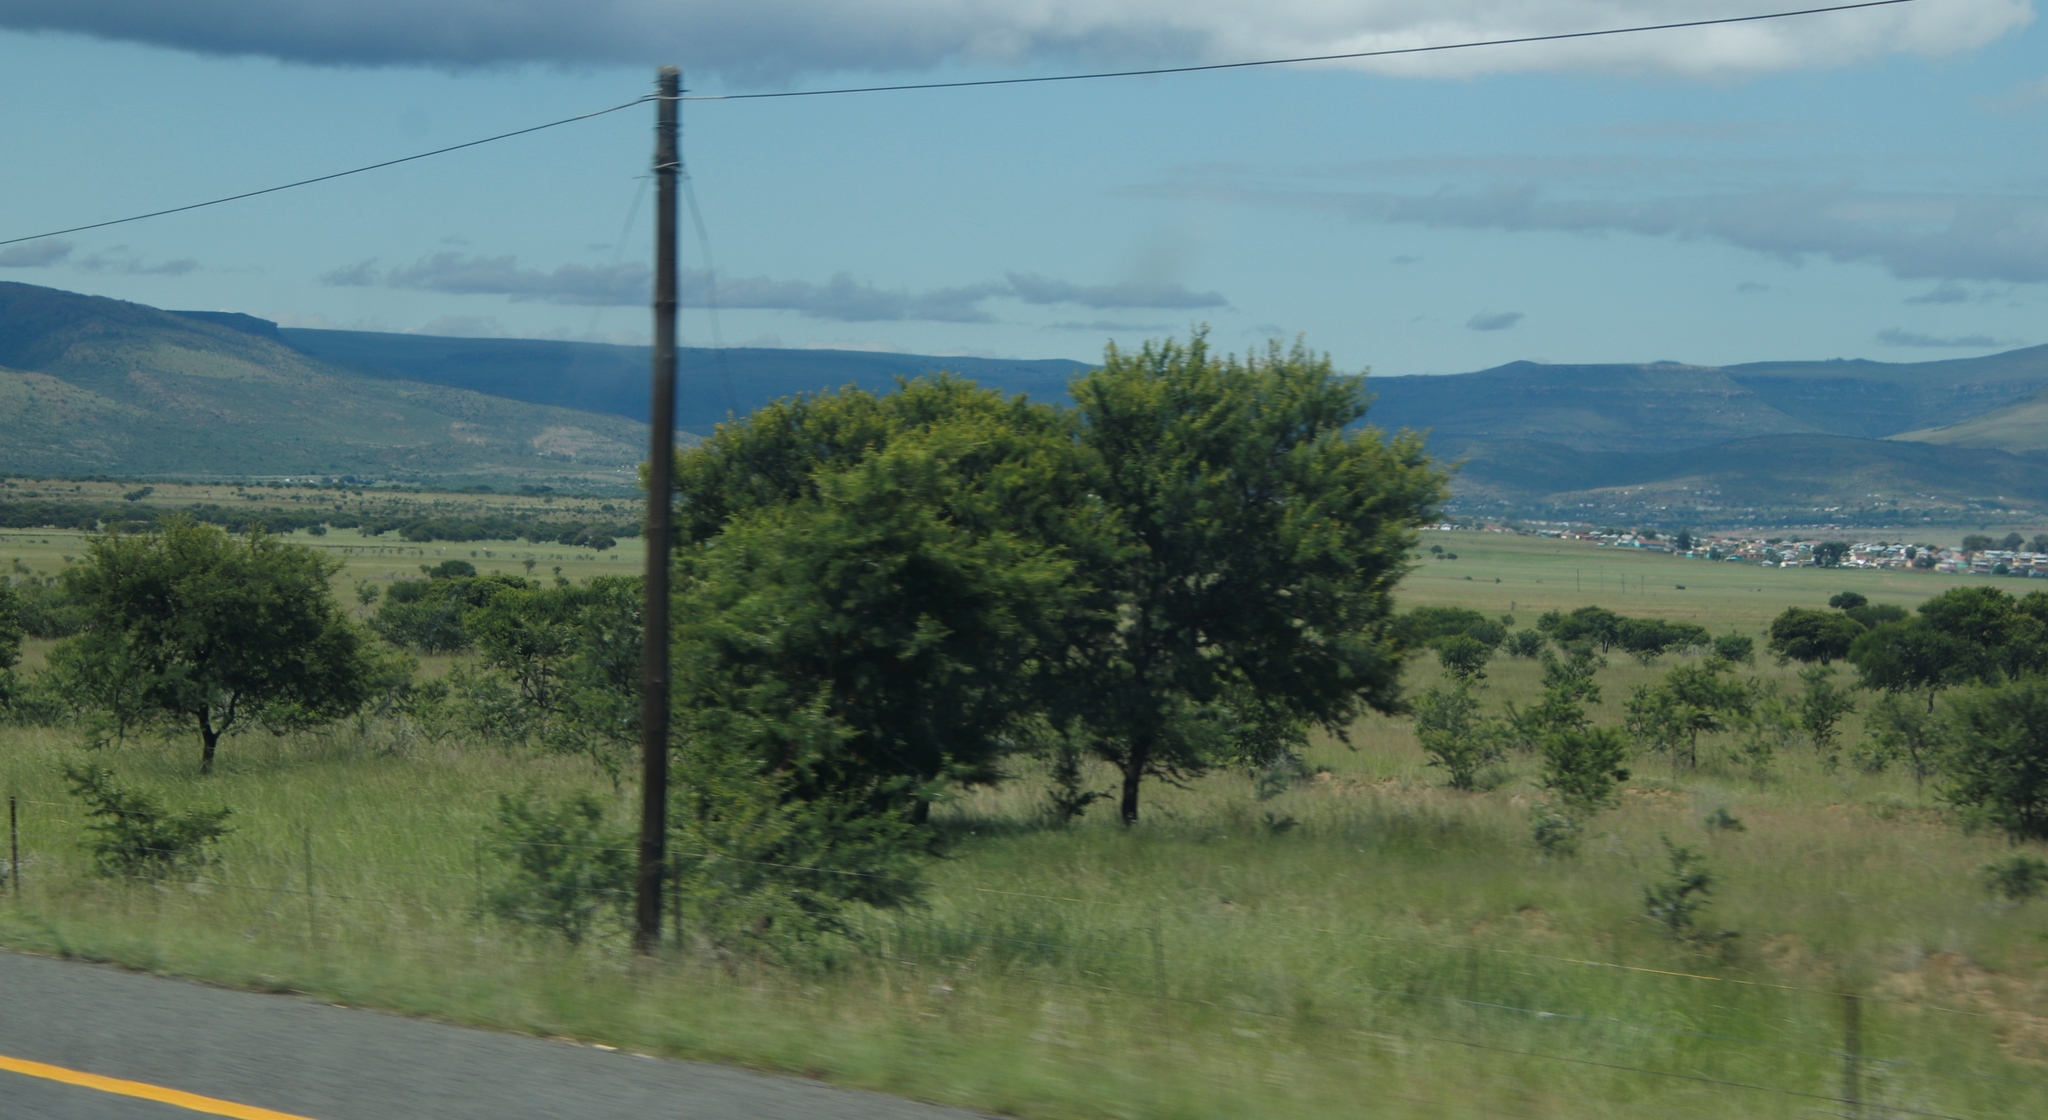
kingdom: Plantae
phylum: Tracheophyta
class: Magnoliopsida
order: Fabales
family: Fabaceae
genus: Vachellia
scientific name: Vachellia karroo
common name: Sweet thorn
